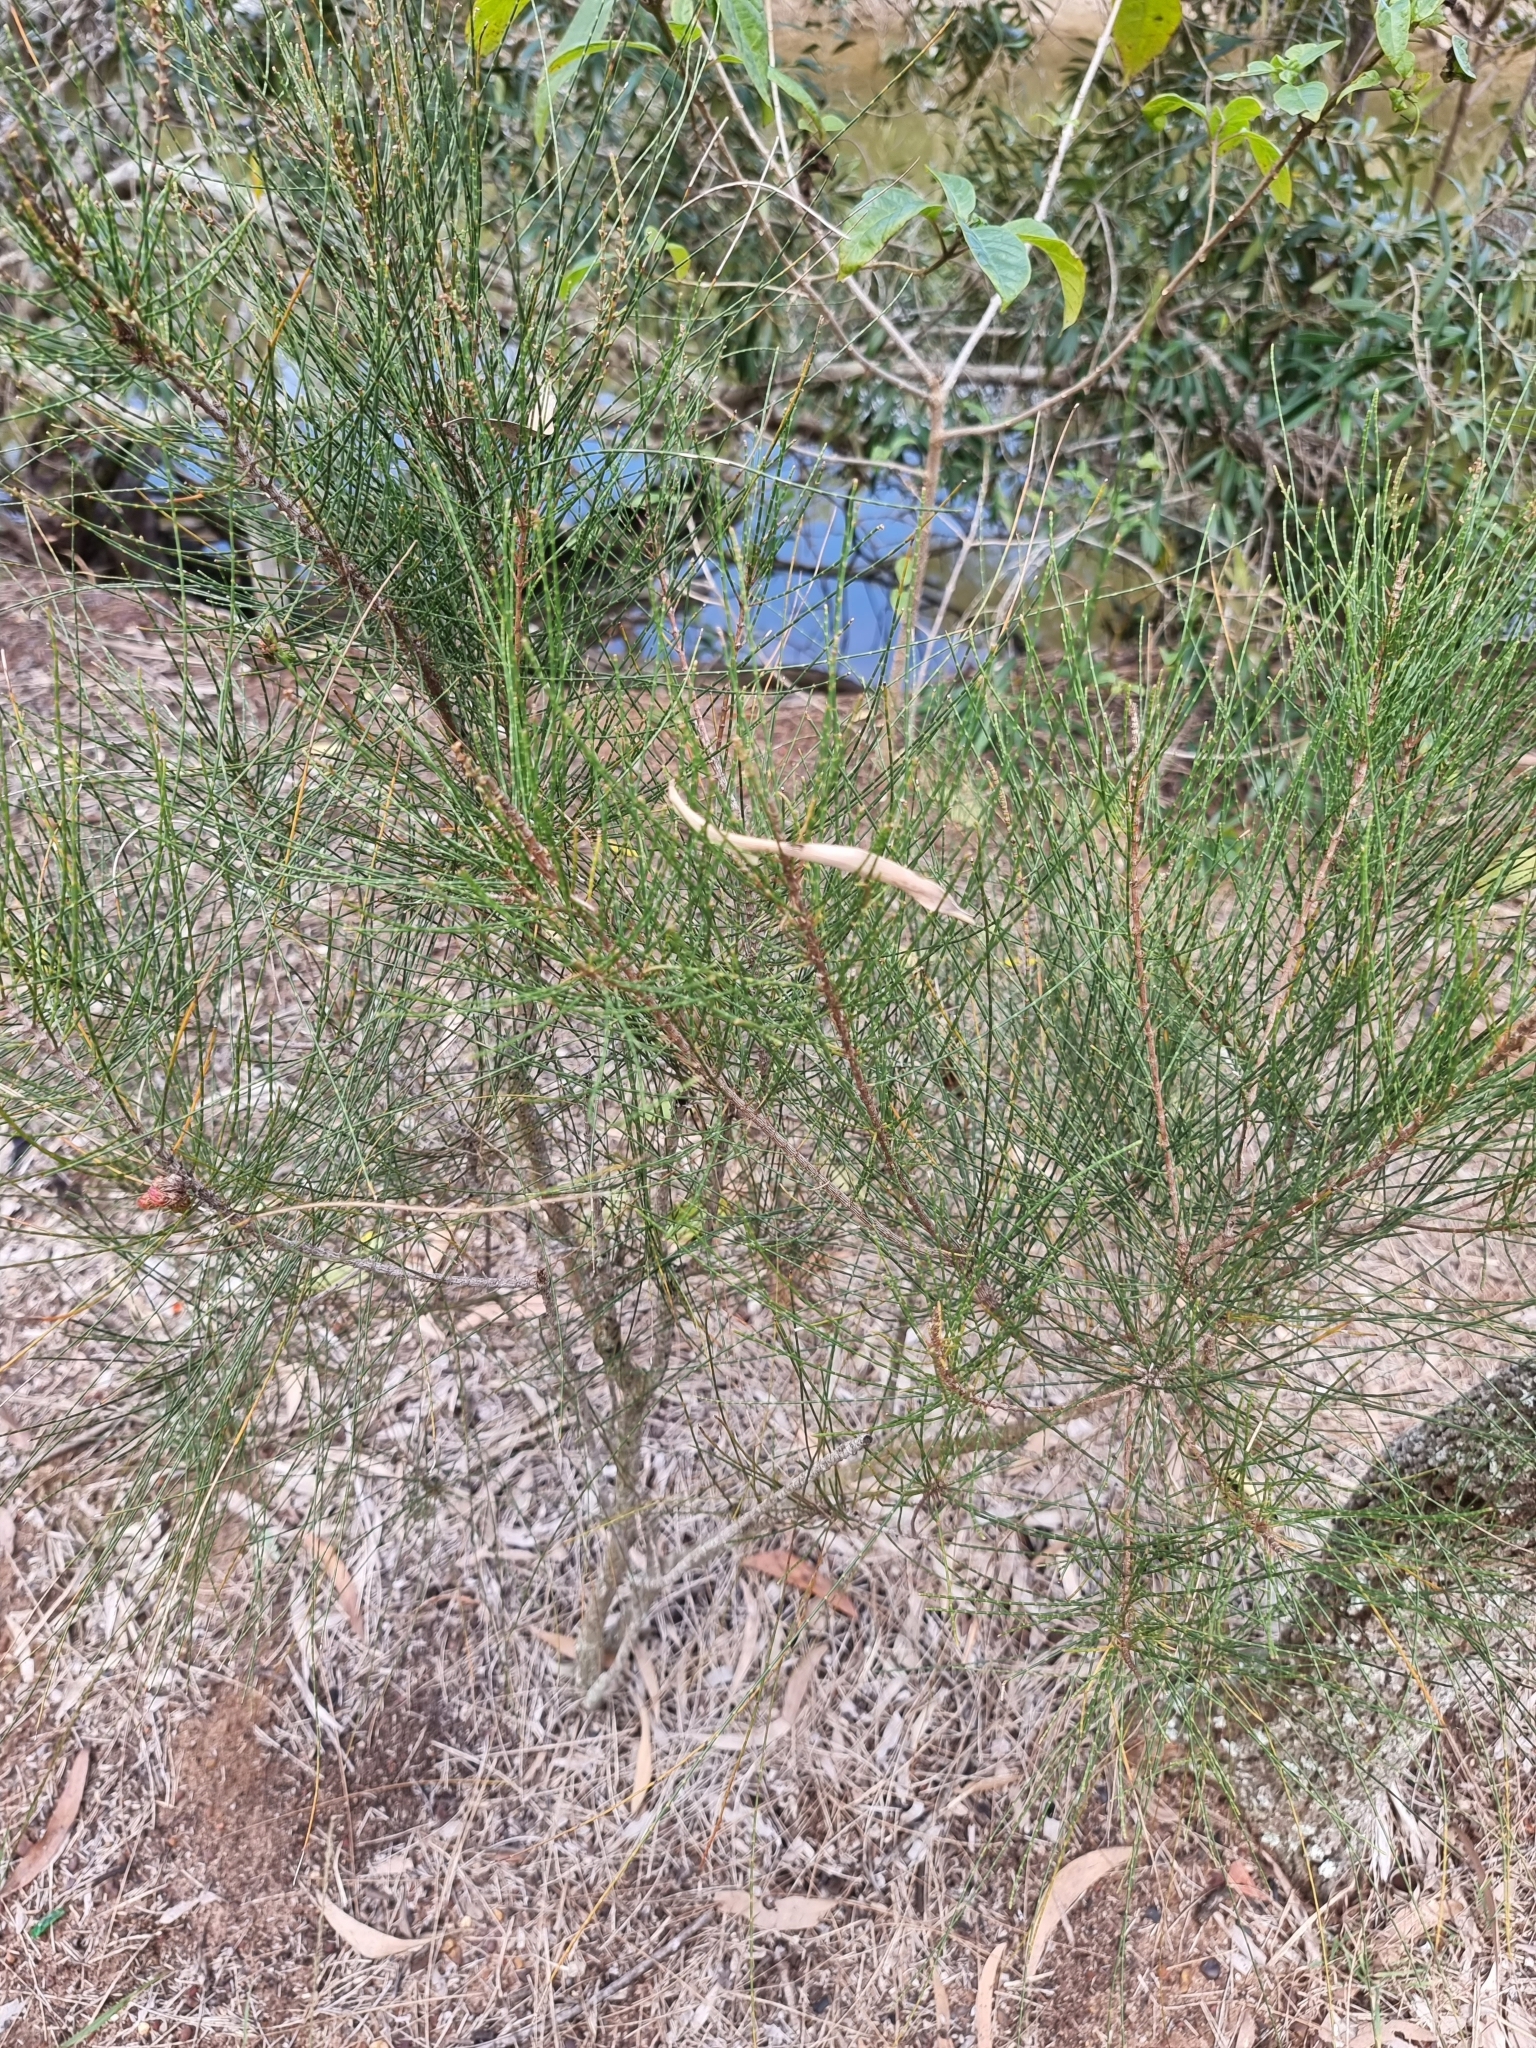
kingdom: Plantae
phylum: Tracheophyta
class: Magnoliopsida
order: Fagales
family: Casuarinaceae
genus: Casuarina
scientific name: Casuarina glauca
